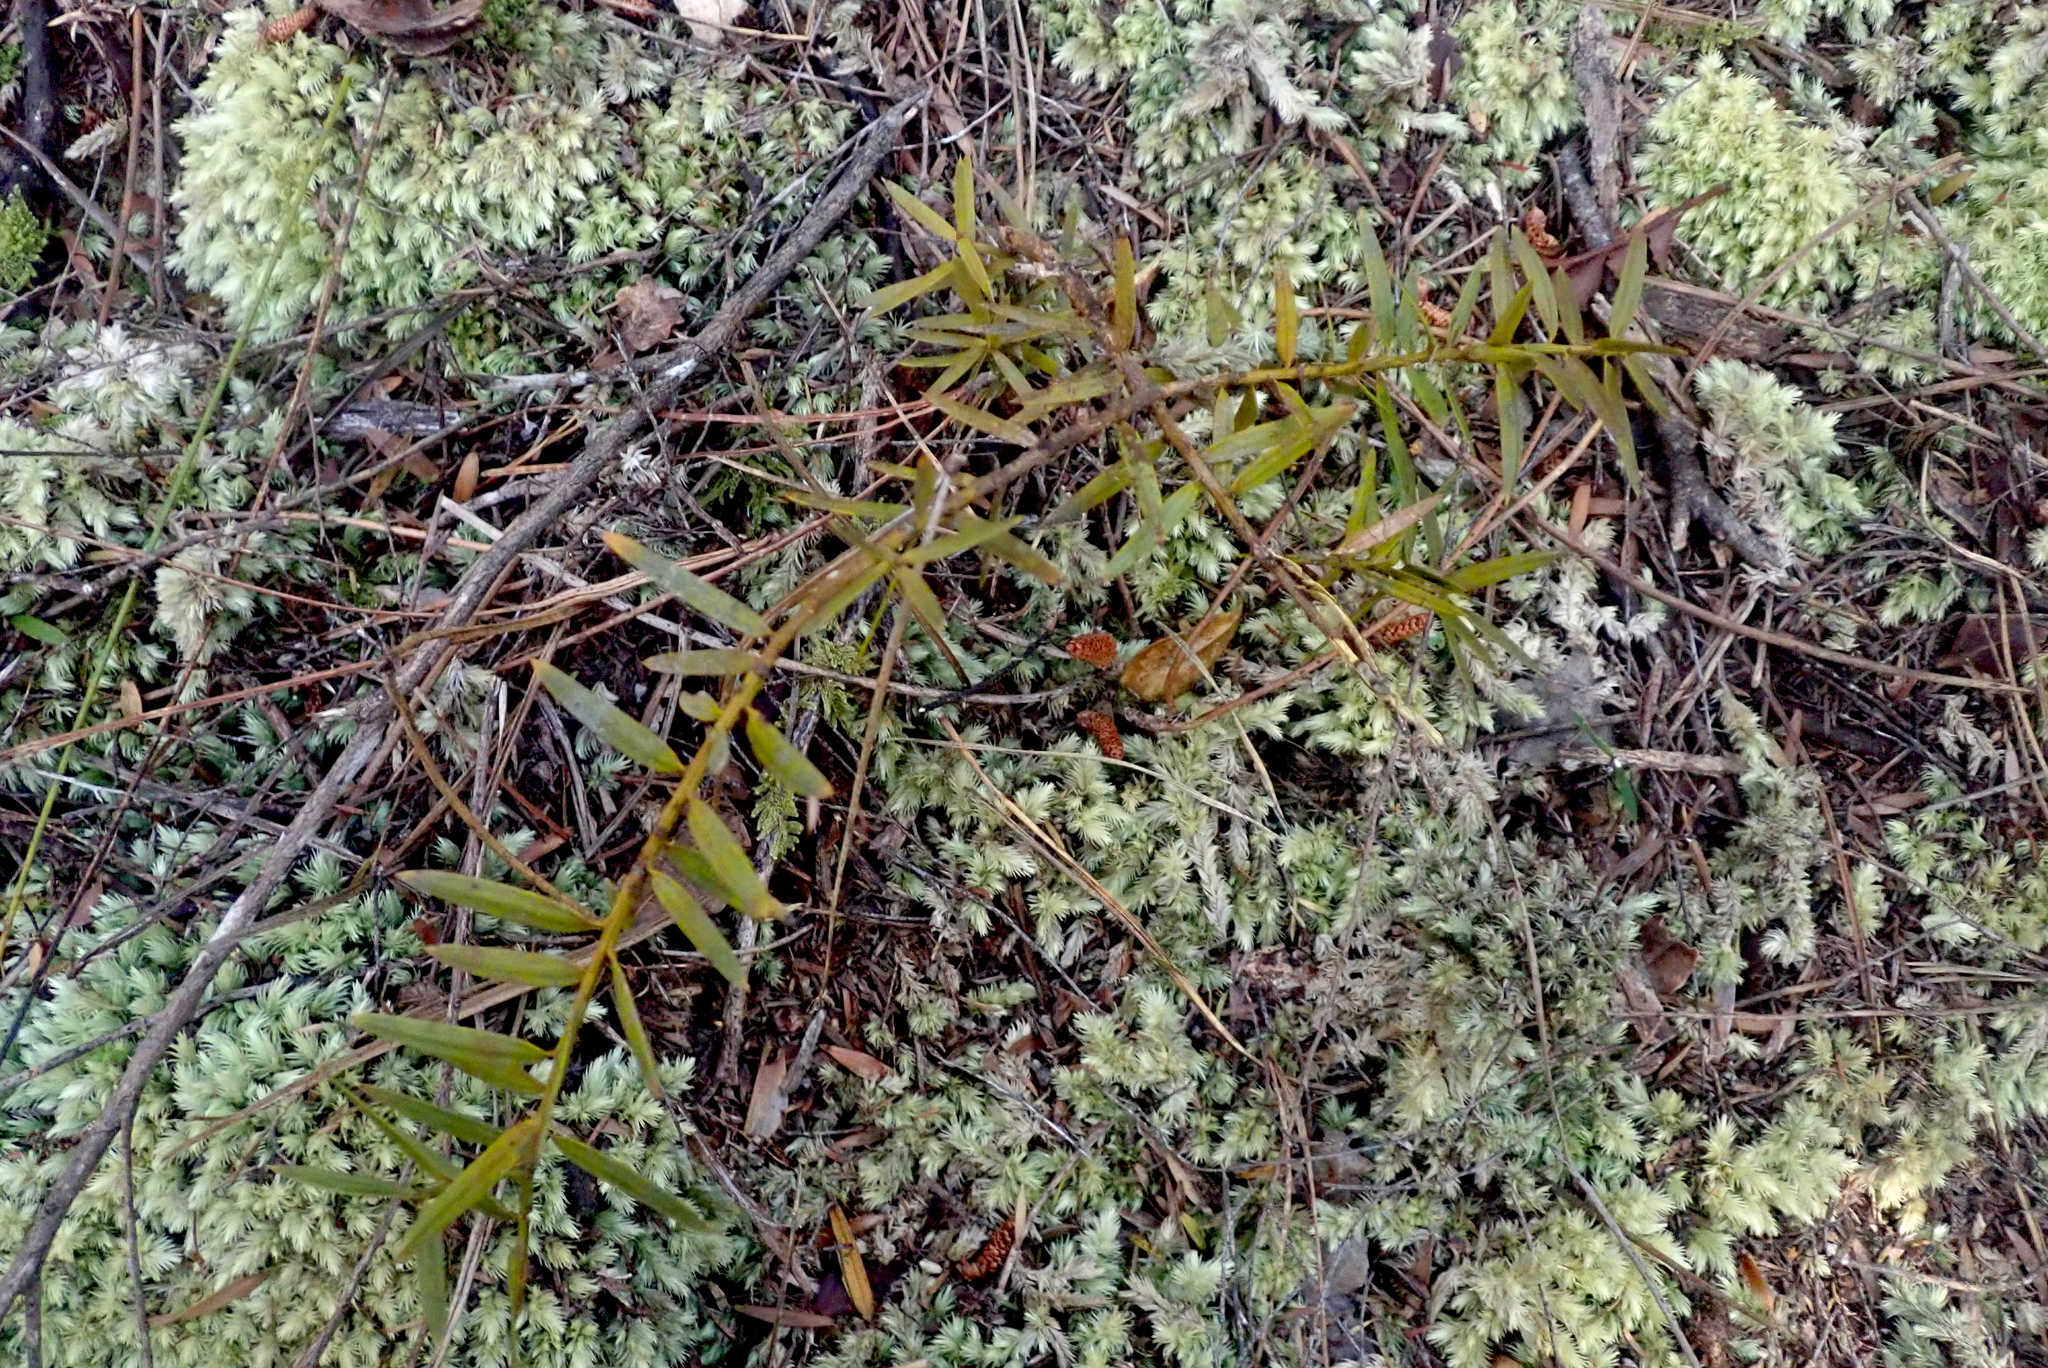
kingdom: Plantae
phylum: Tracheophyta
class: Pinopsida
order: Pinales
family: Podocarpaceae
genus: Podocarpus
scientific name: Podocarpus totara
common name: Totara
